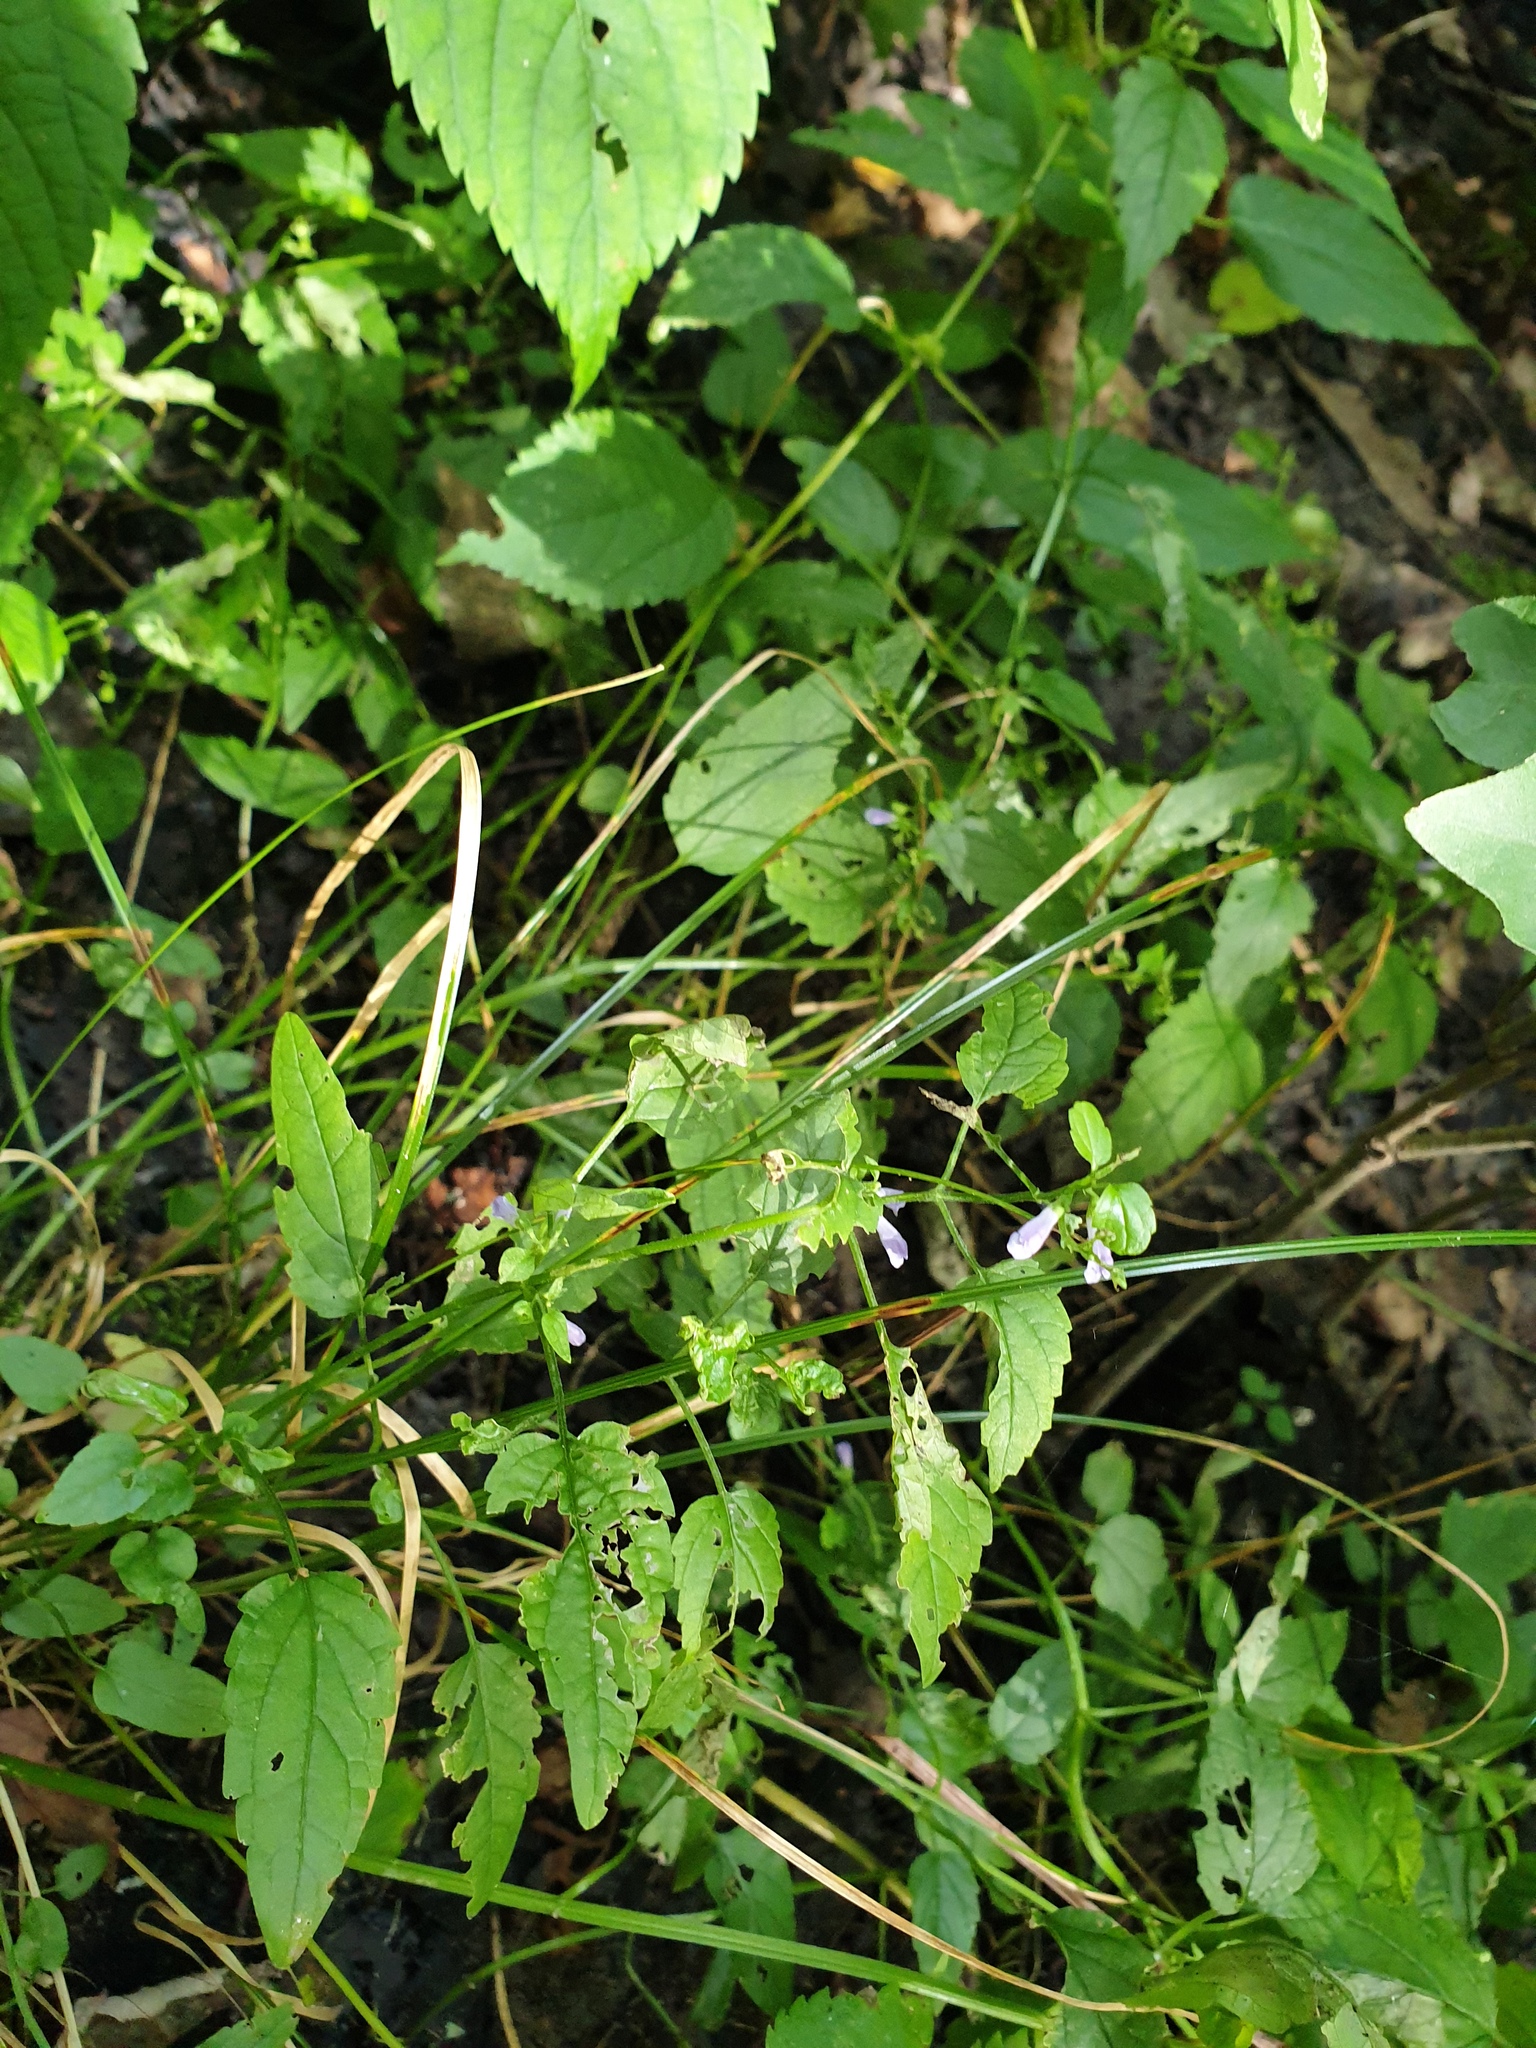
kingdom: Plantae
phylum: Tracheophyta
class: Magnoliopsida
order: Lamiales
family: Lamiaceae
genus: Scutellaria
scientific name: Scutellaria lateriflora
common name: Blue skullcap
